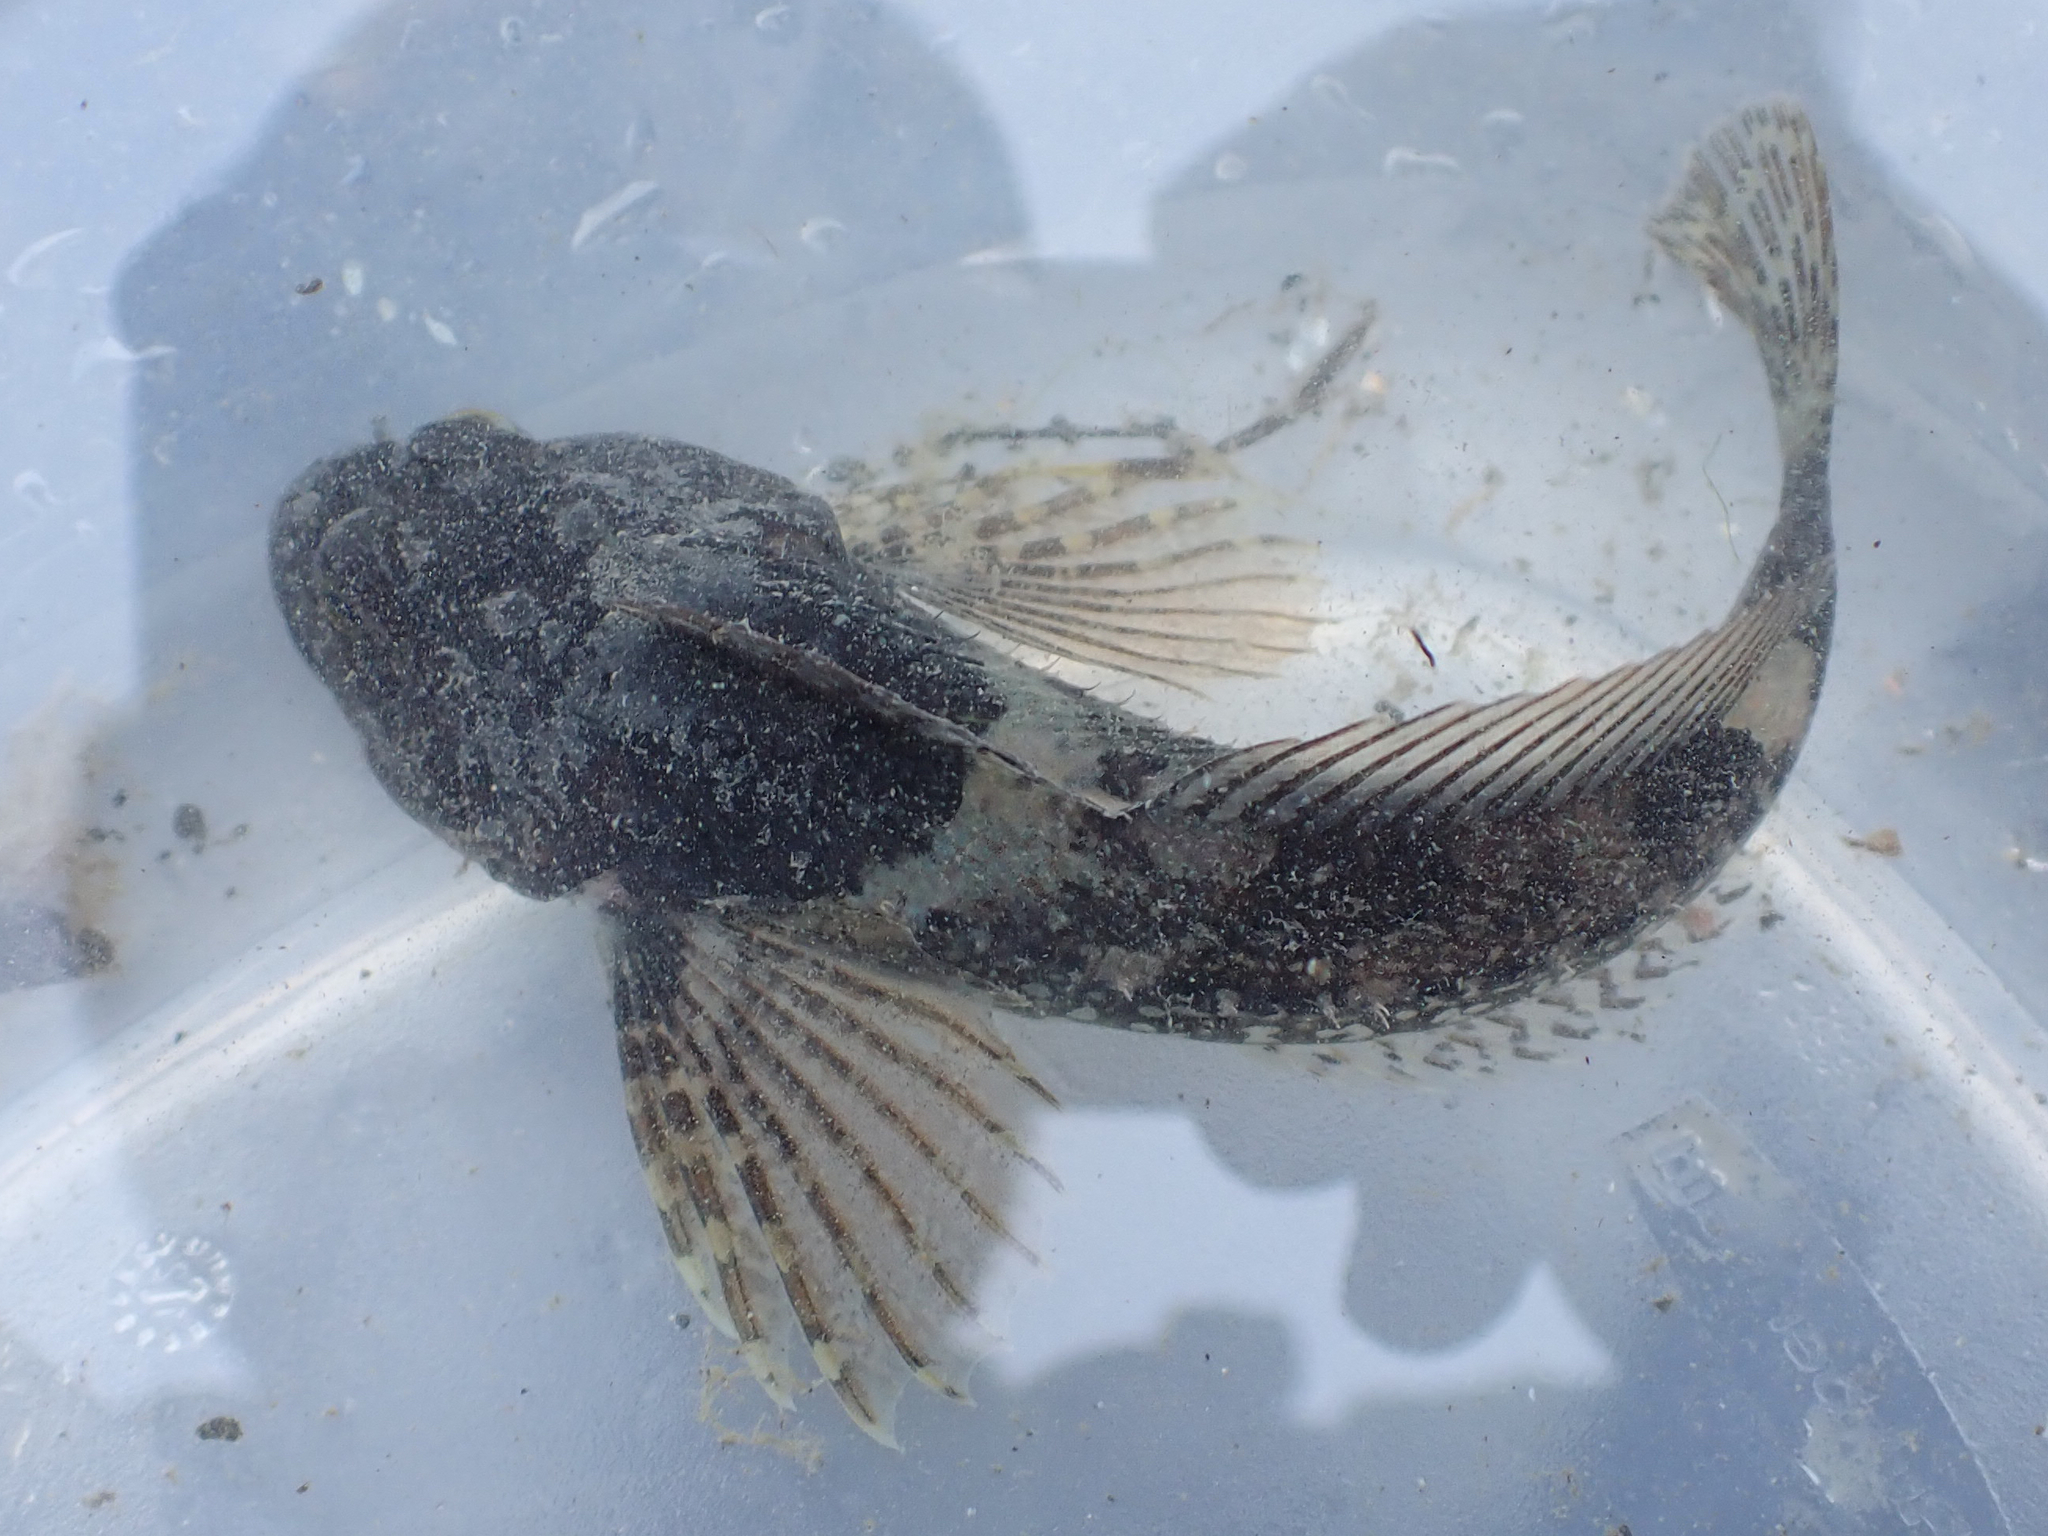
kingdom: Animalia
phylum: Chordata
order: Scorpaeniformes
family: Cottidae
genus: Artedius
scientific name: Artedius fenestralis
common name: Padded sculpin
